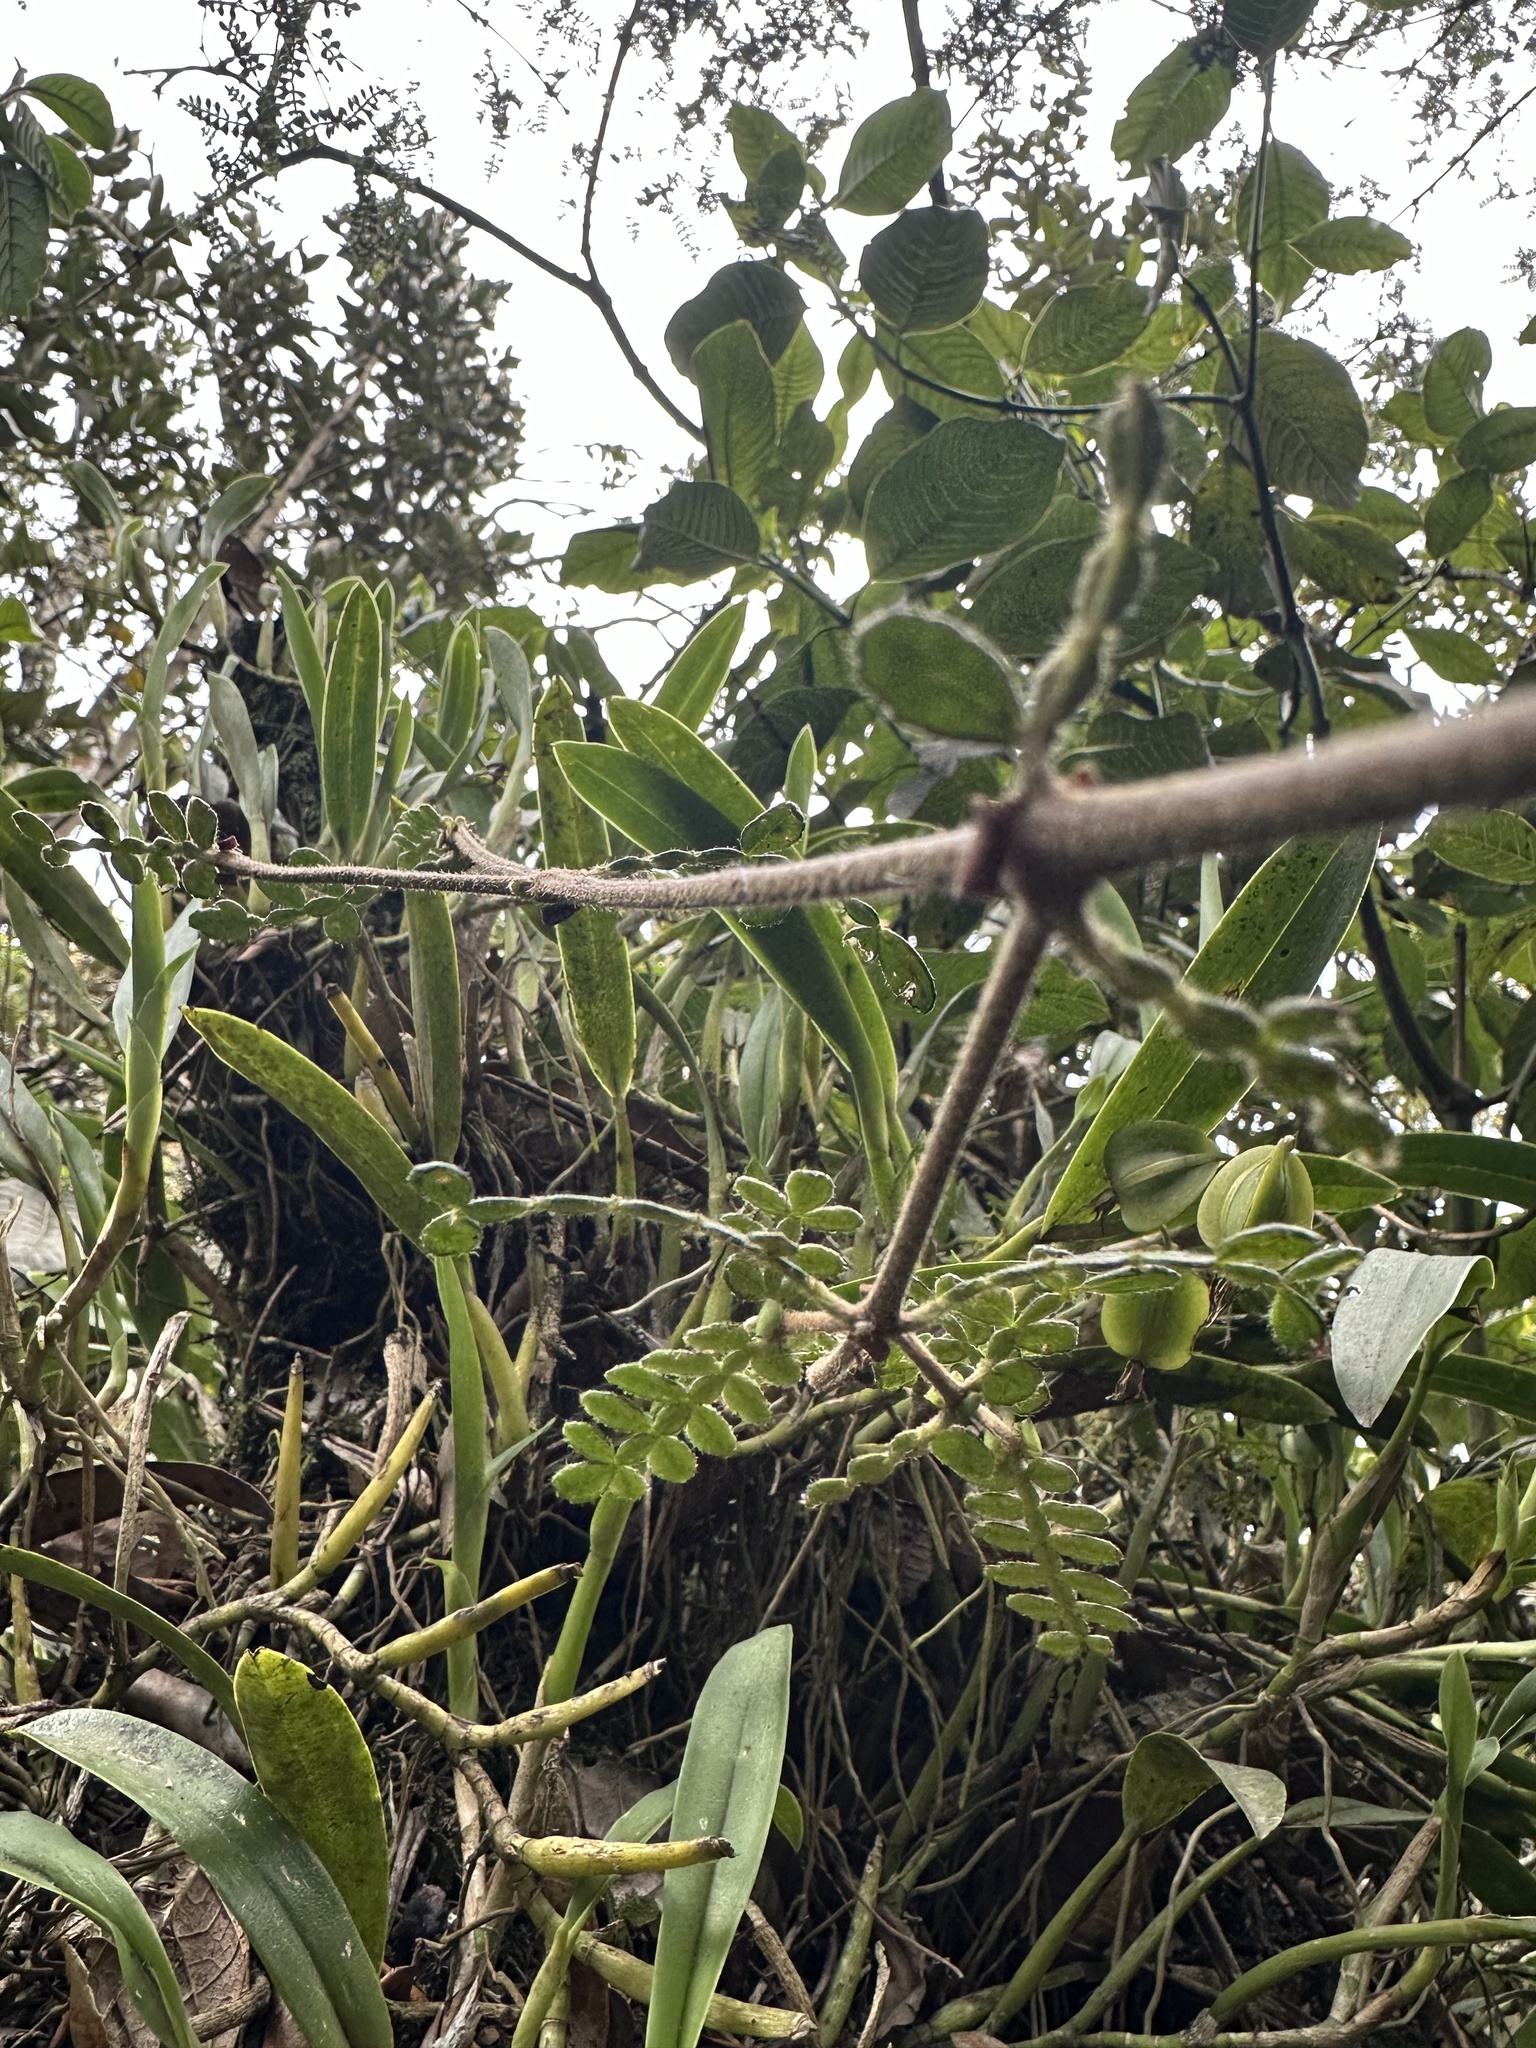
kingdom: Plantae
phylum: Tracheophyta
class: Magnoliopsida
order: Oxalidales
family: Cunoniaceae
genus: Weinmannia
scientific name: Weinmannia tomentosa
